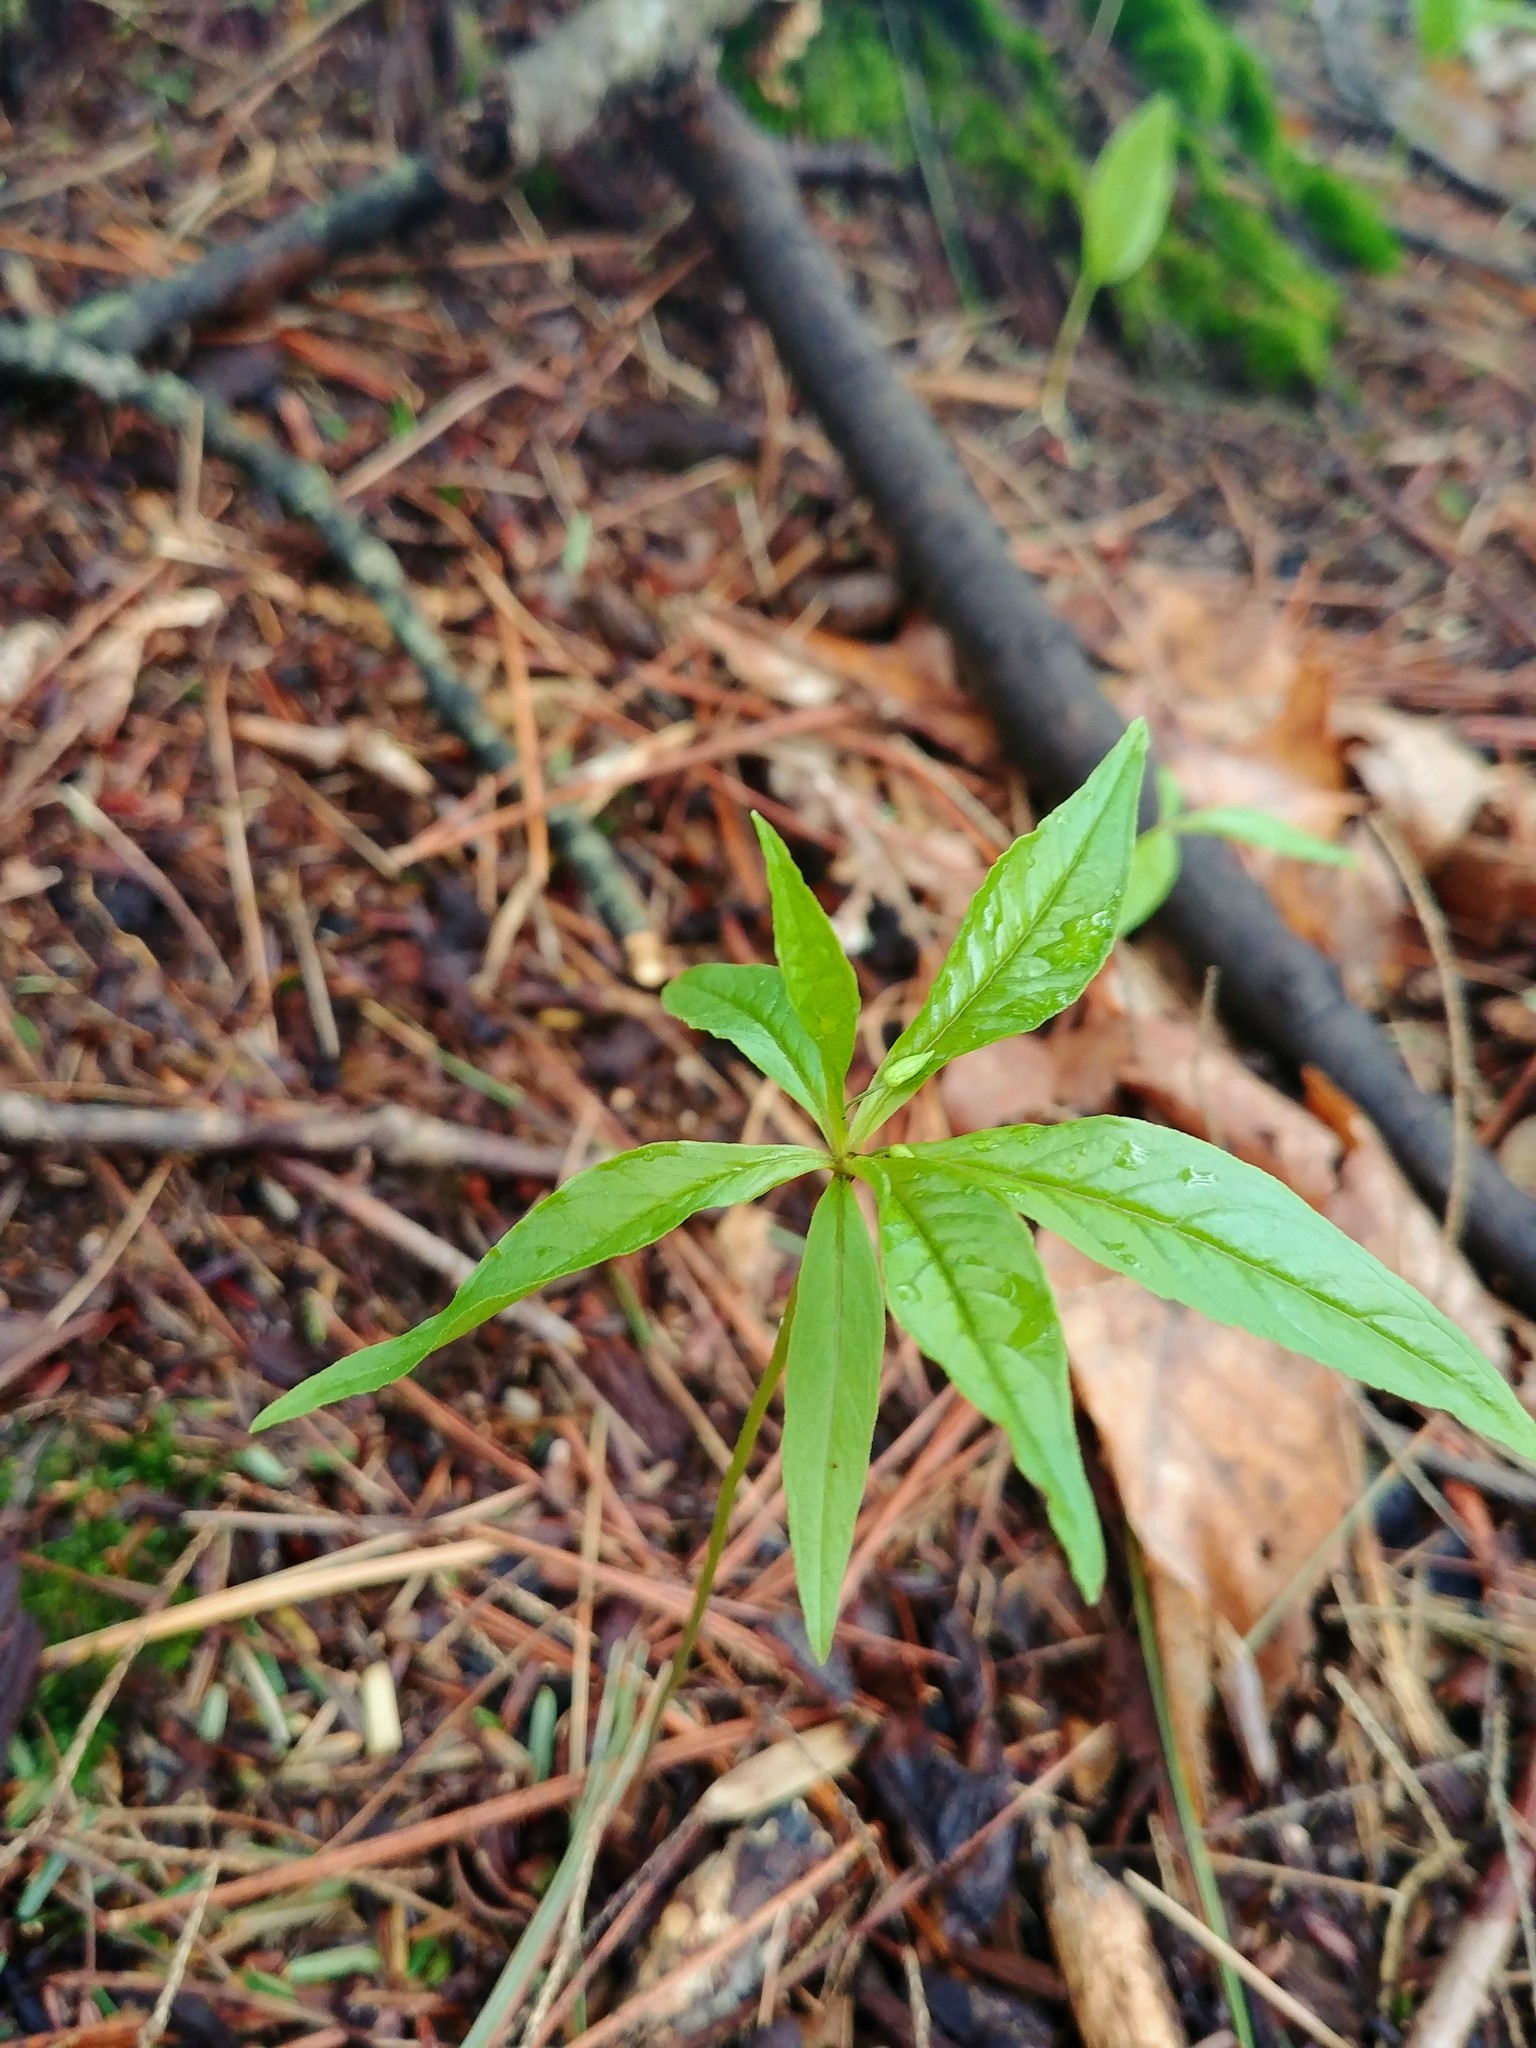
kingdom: Plantae
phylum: Tracheophyta
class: Magnoliopsida
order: Ericales
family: Primulaceae
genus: Lysimachia
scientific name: Lysimachia borealis
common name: American starflower
